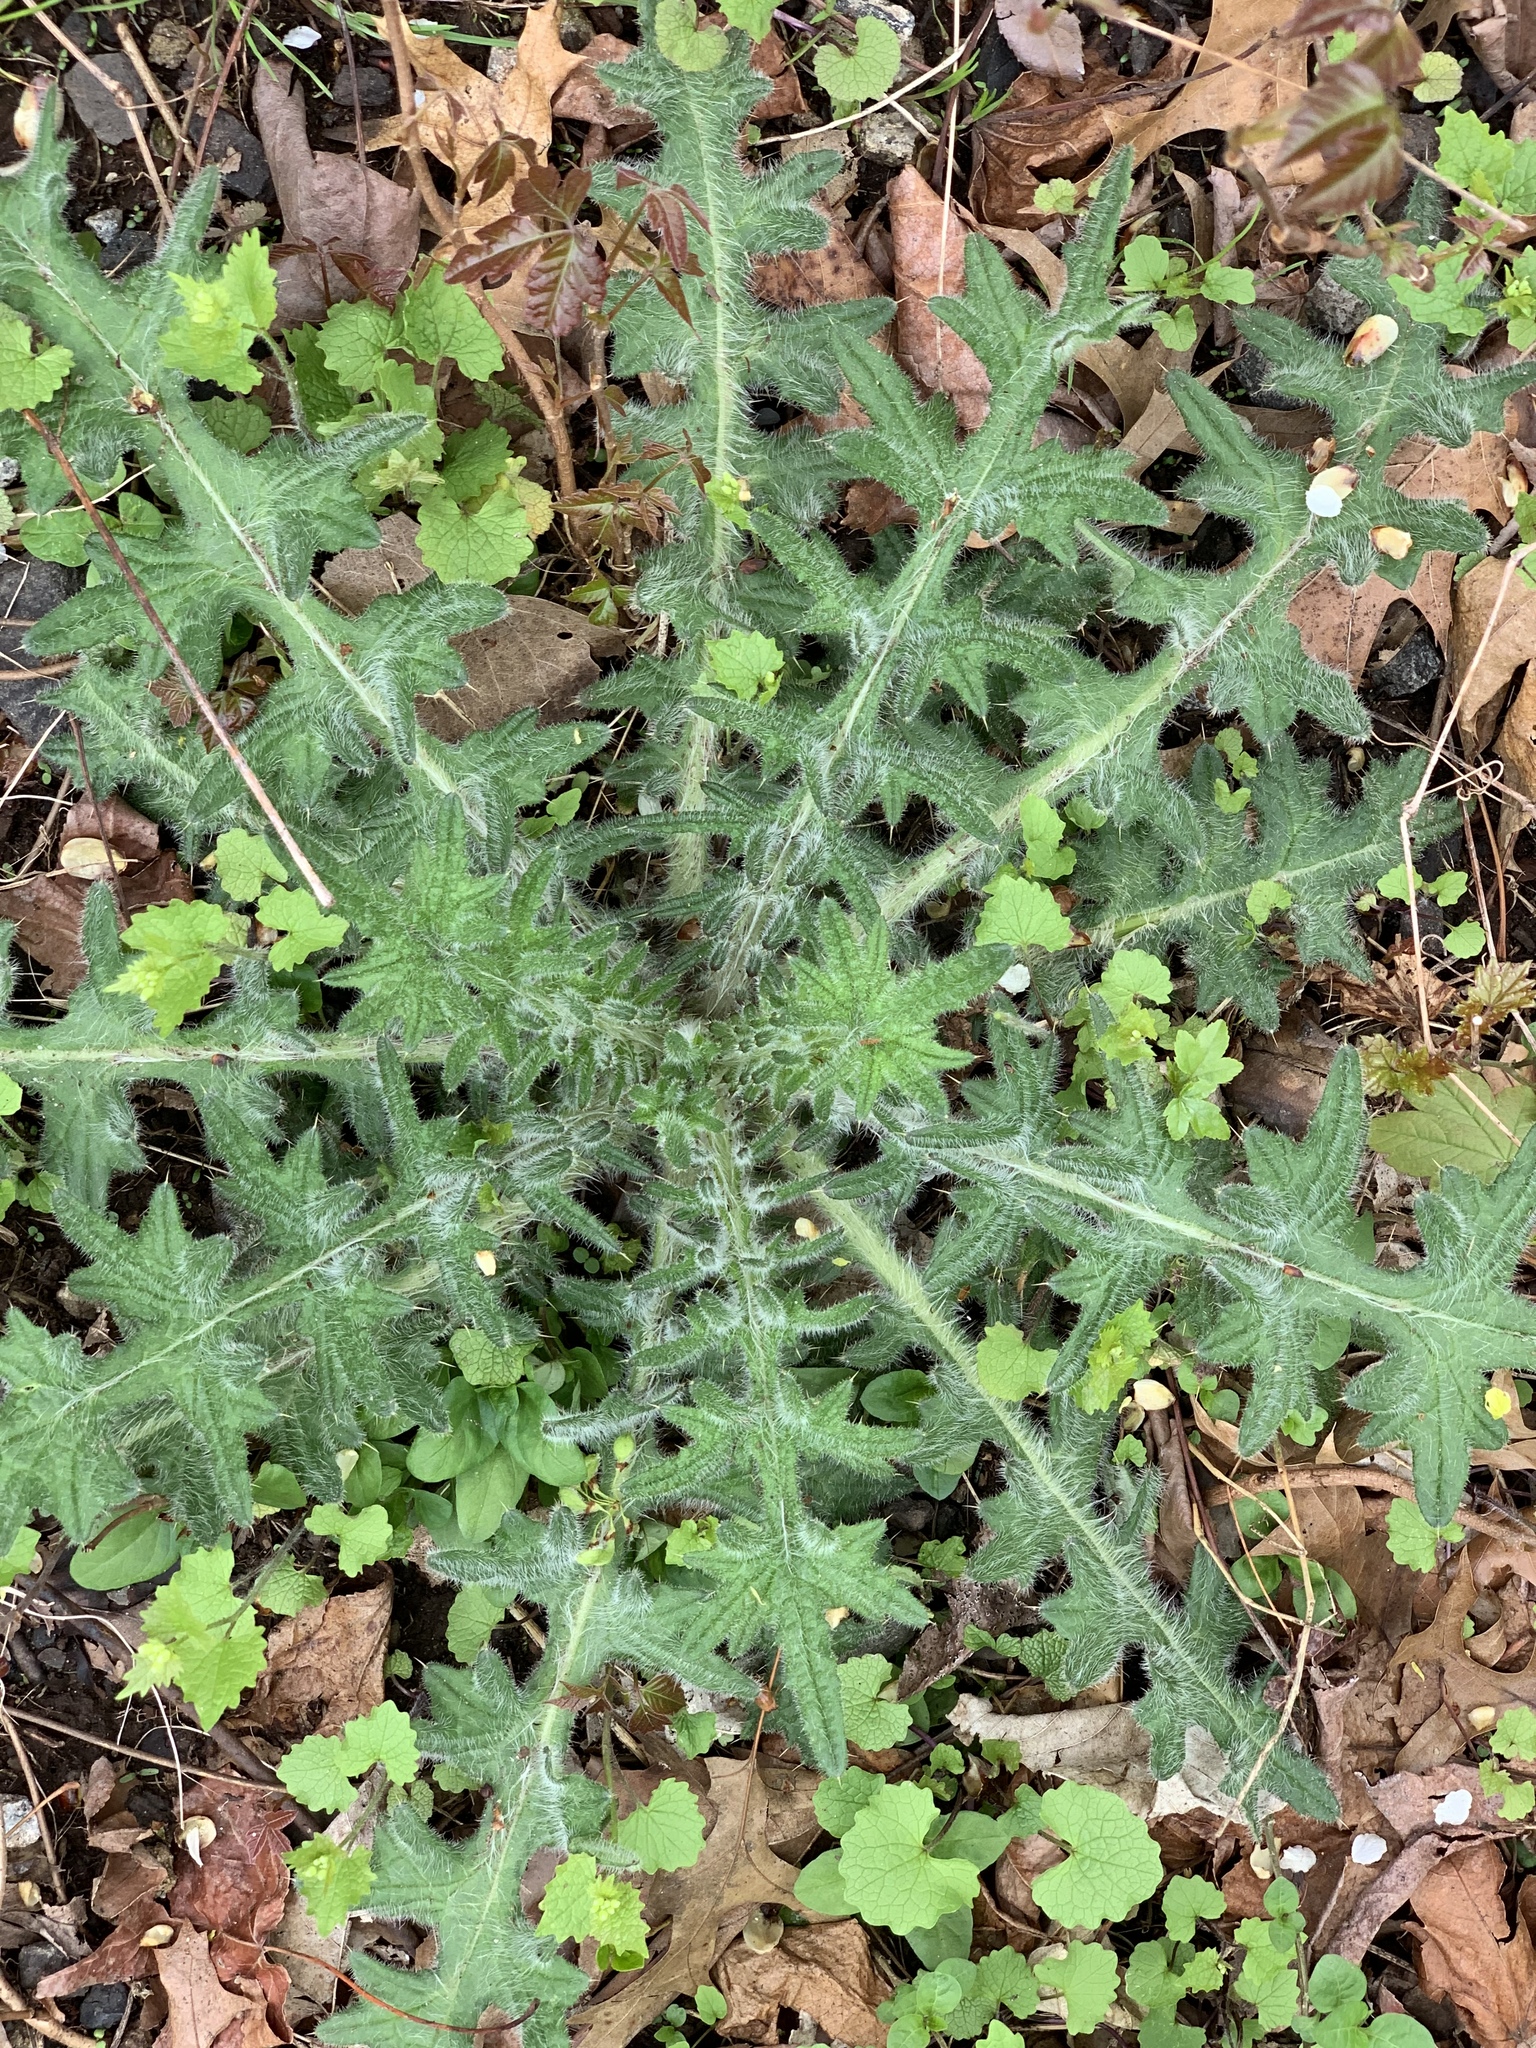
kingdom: Plantae
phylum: Tracheophyta
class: Magnoliopsida
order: Asterales
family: Asteraceae
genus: Cirsium
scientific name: Cirsium vulgare
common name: Bull thistle
